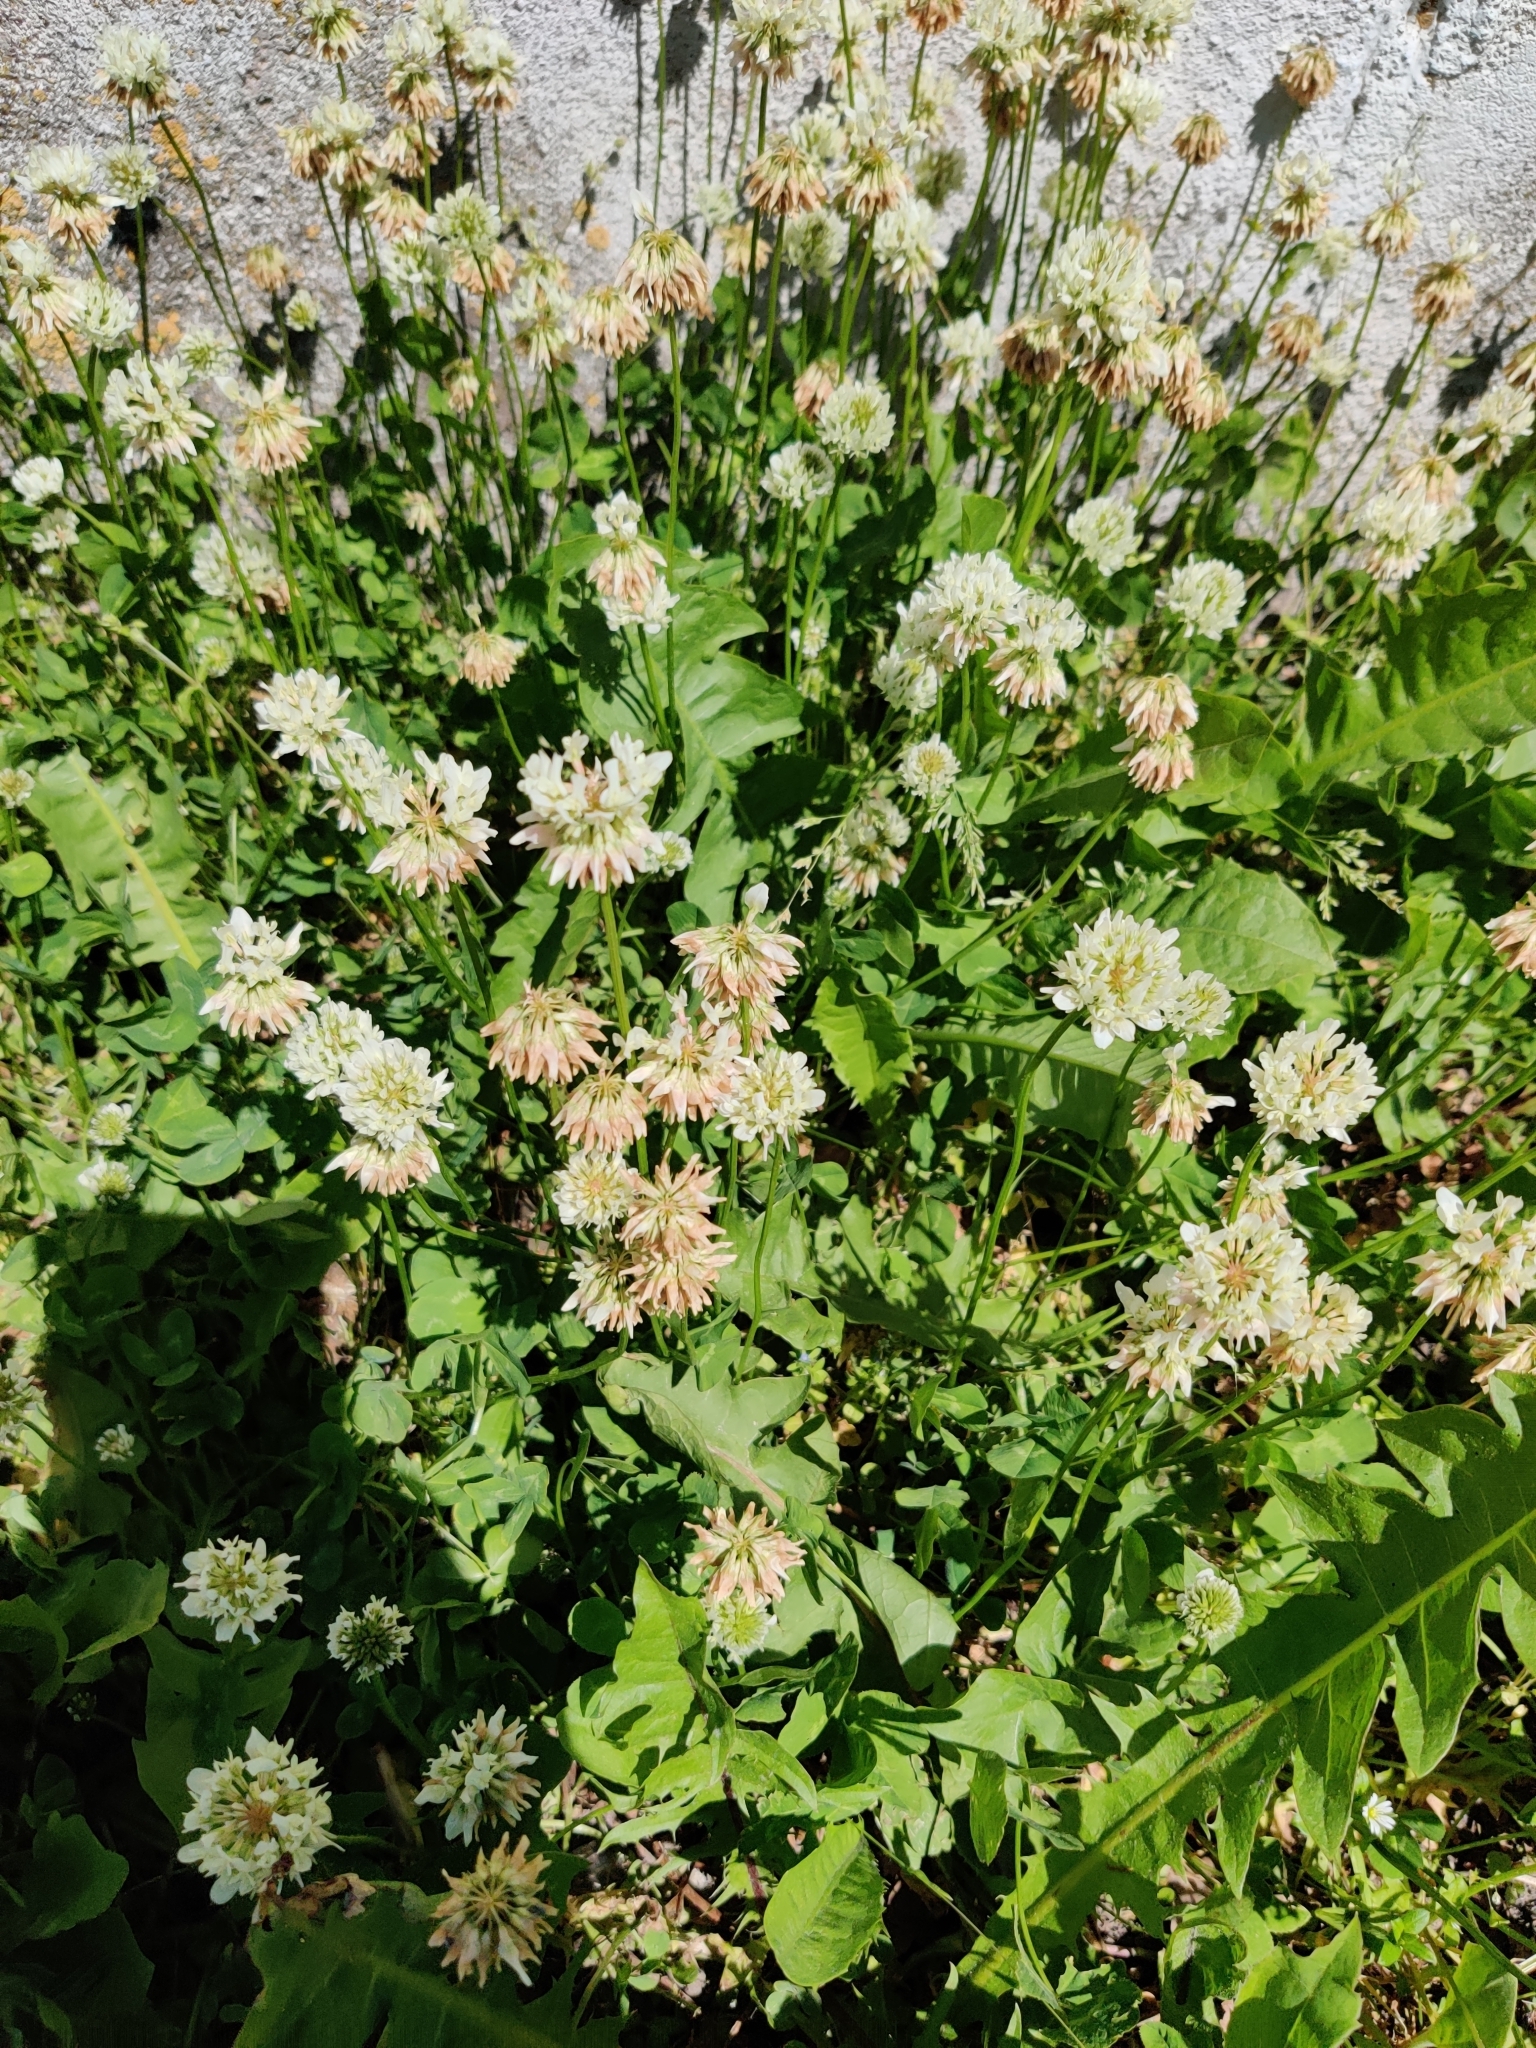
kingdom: Plantae
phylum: Tracheophyta
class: Magnoliopsida
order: Fabales
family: Fabaceae
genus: Trifolium
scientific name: Trifolium repens
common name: White clover
